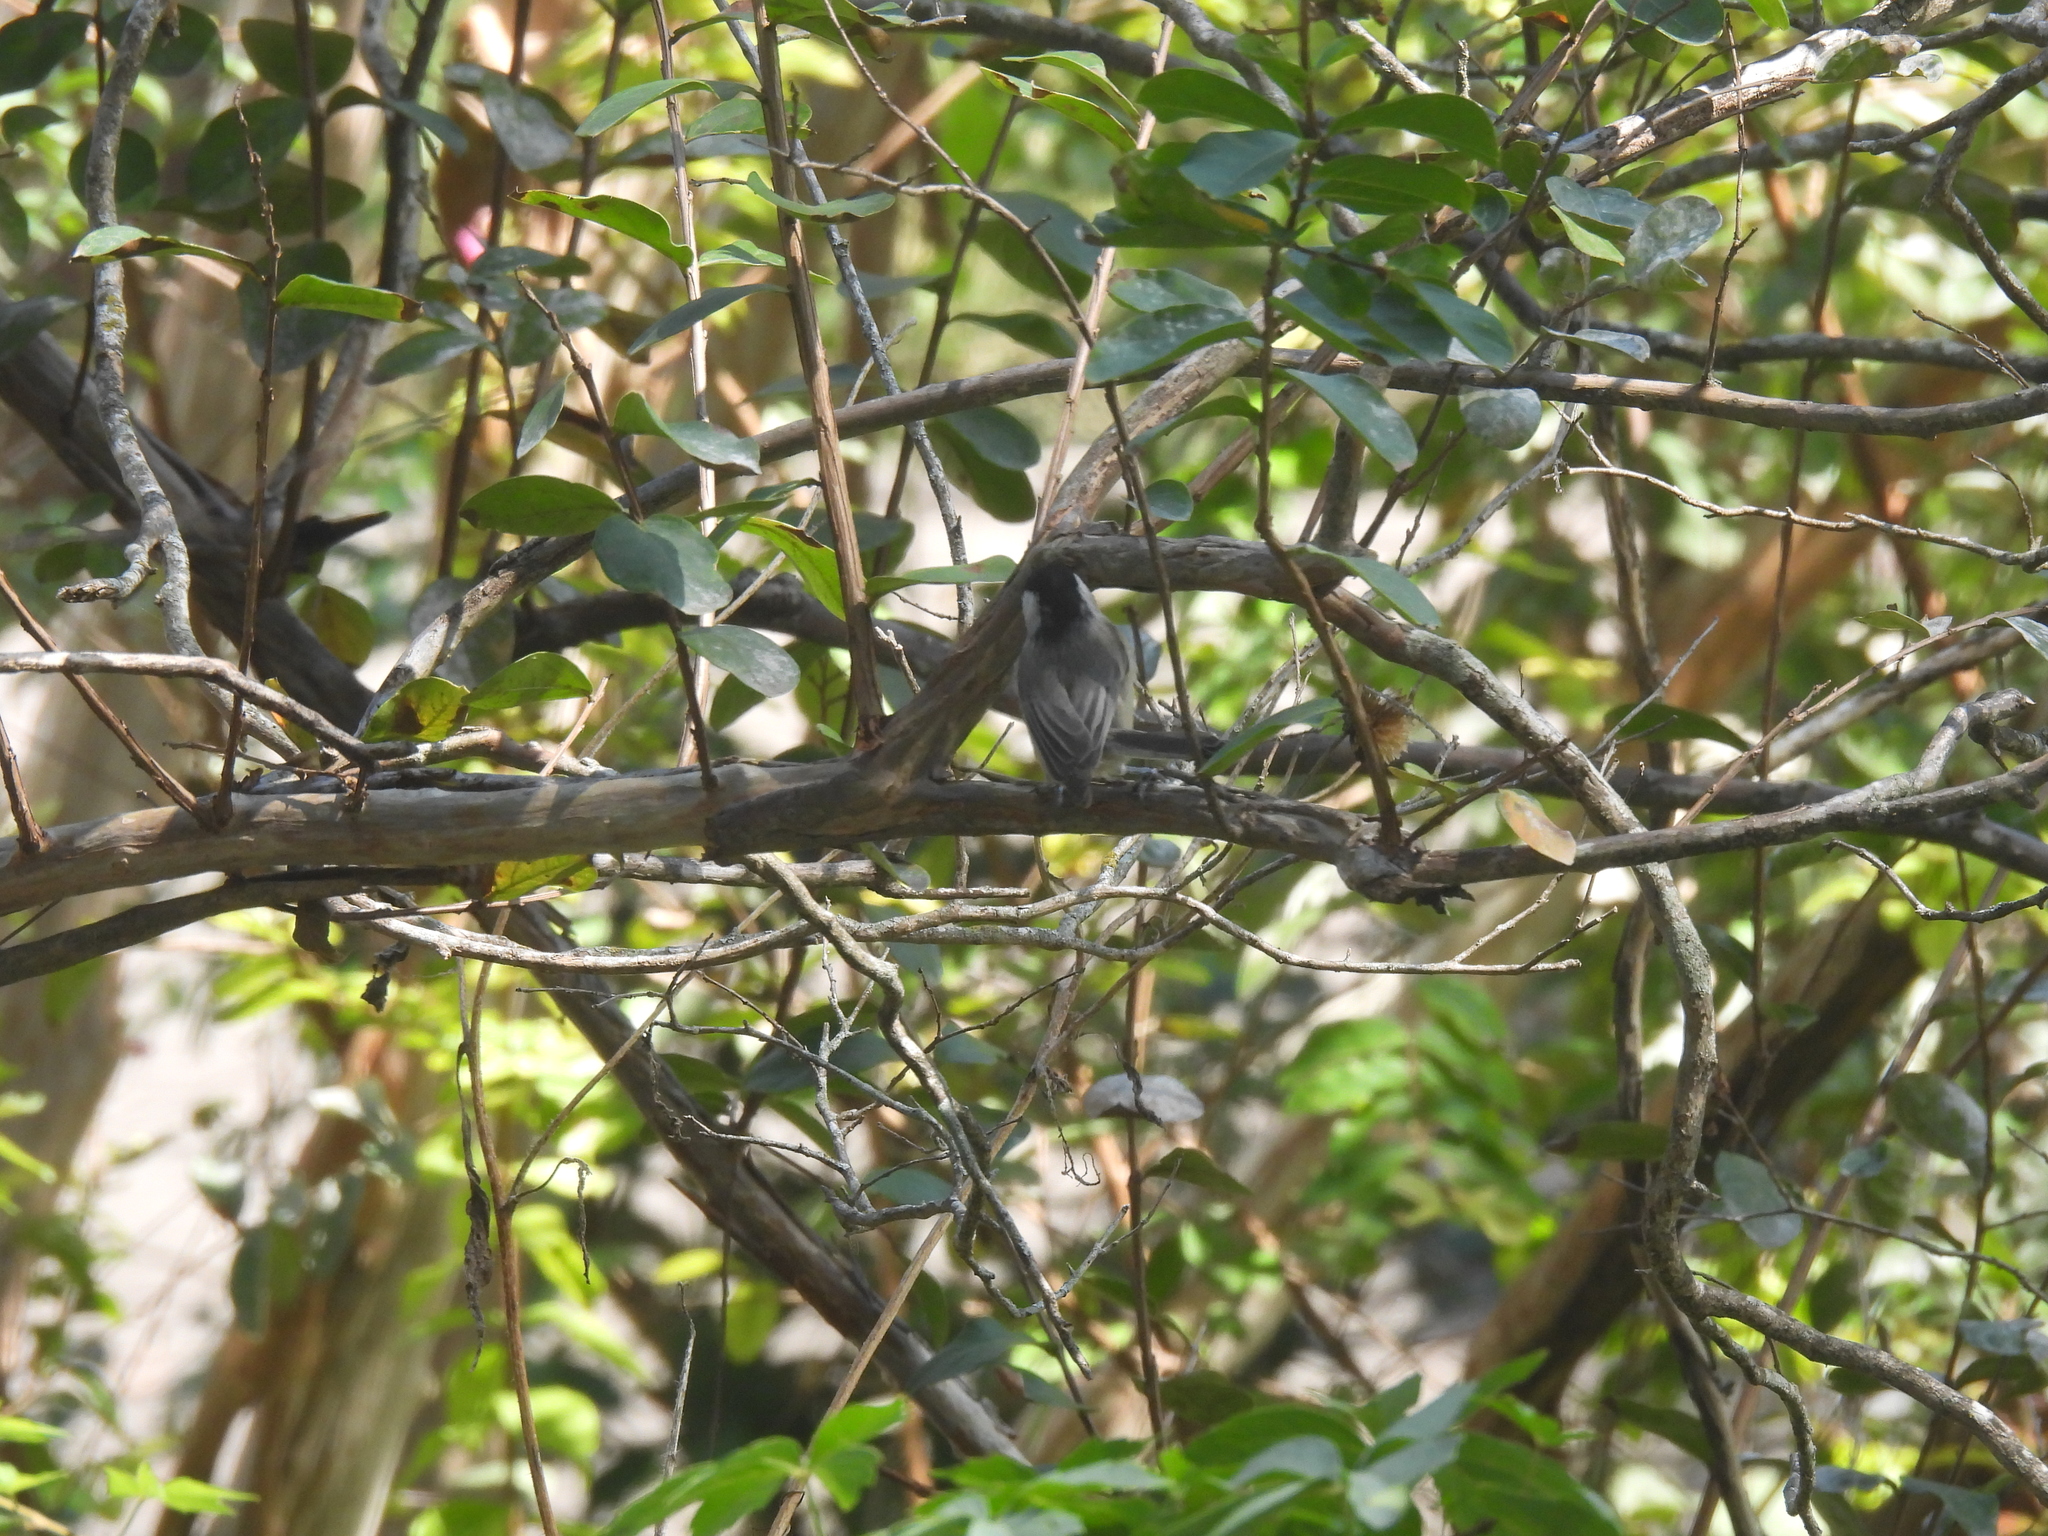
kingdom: Animalia
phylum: Chordata
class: Aves
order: Passeriformes
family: Paridae
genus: Poecile
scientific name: Poecile carolinensis
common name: Carolina chickadee
